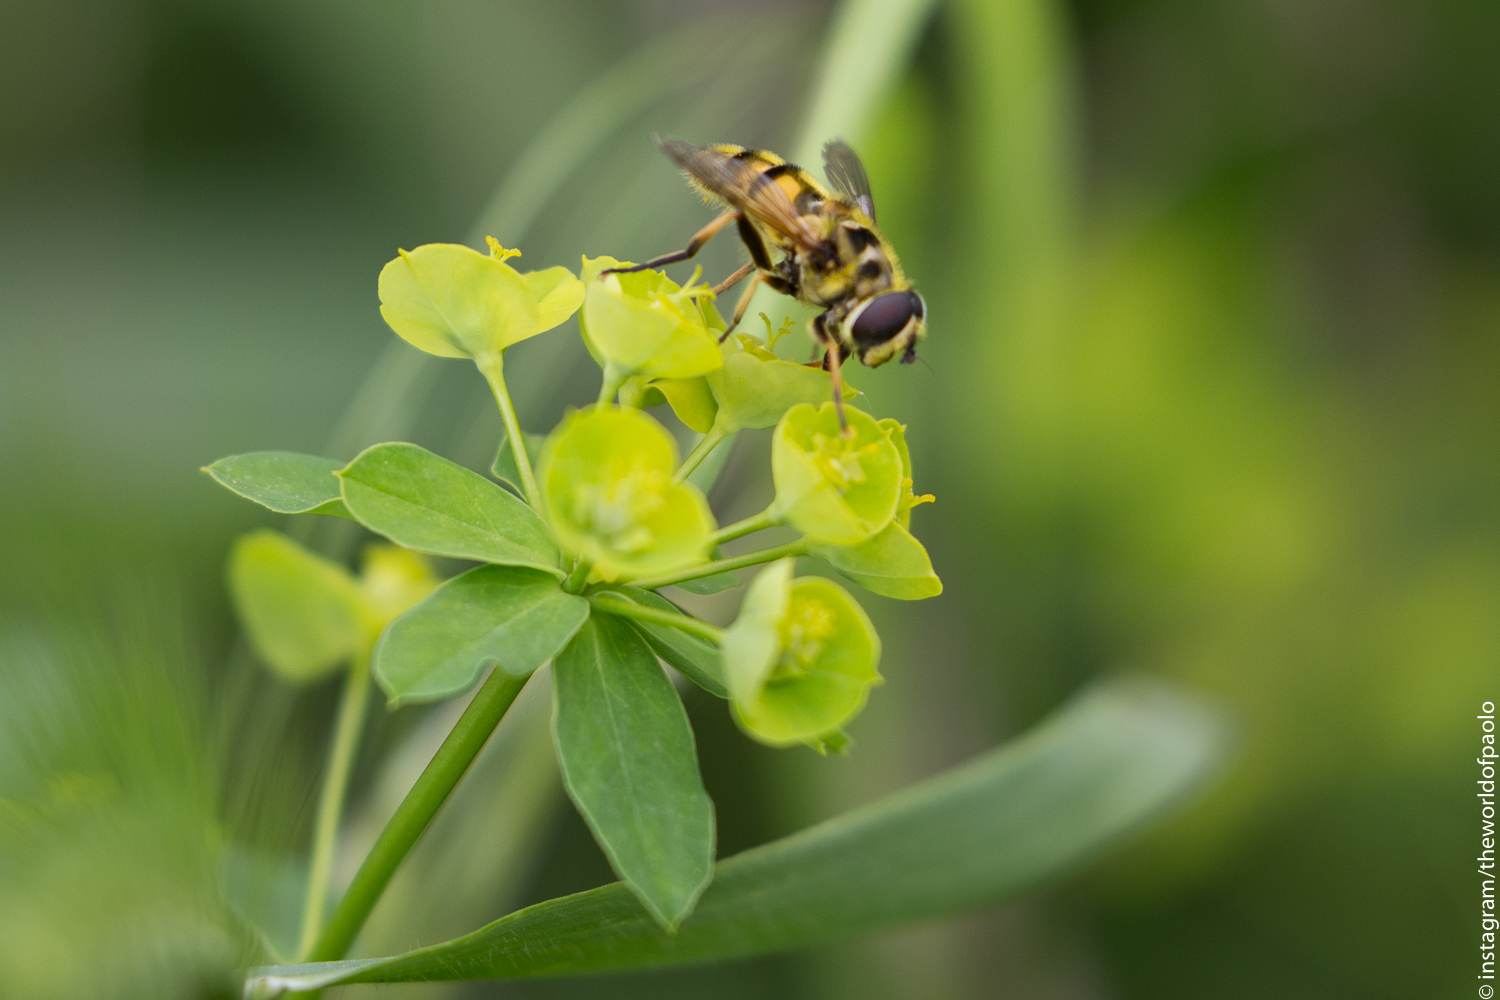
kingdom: Animalia
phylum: Arthropoda
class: Insecta
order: Diptera
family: Syrphidae
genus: Myathropa
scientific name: Myathropa florea
